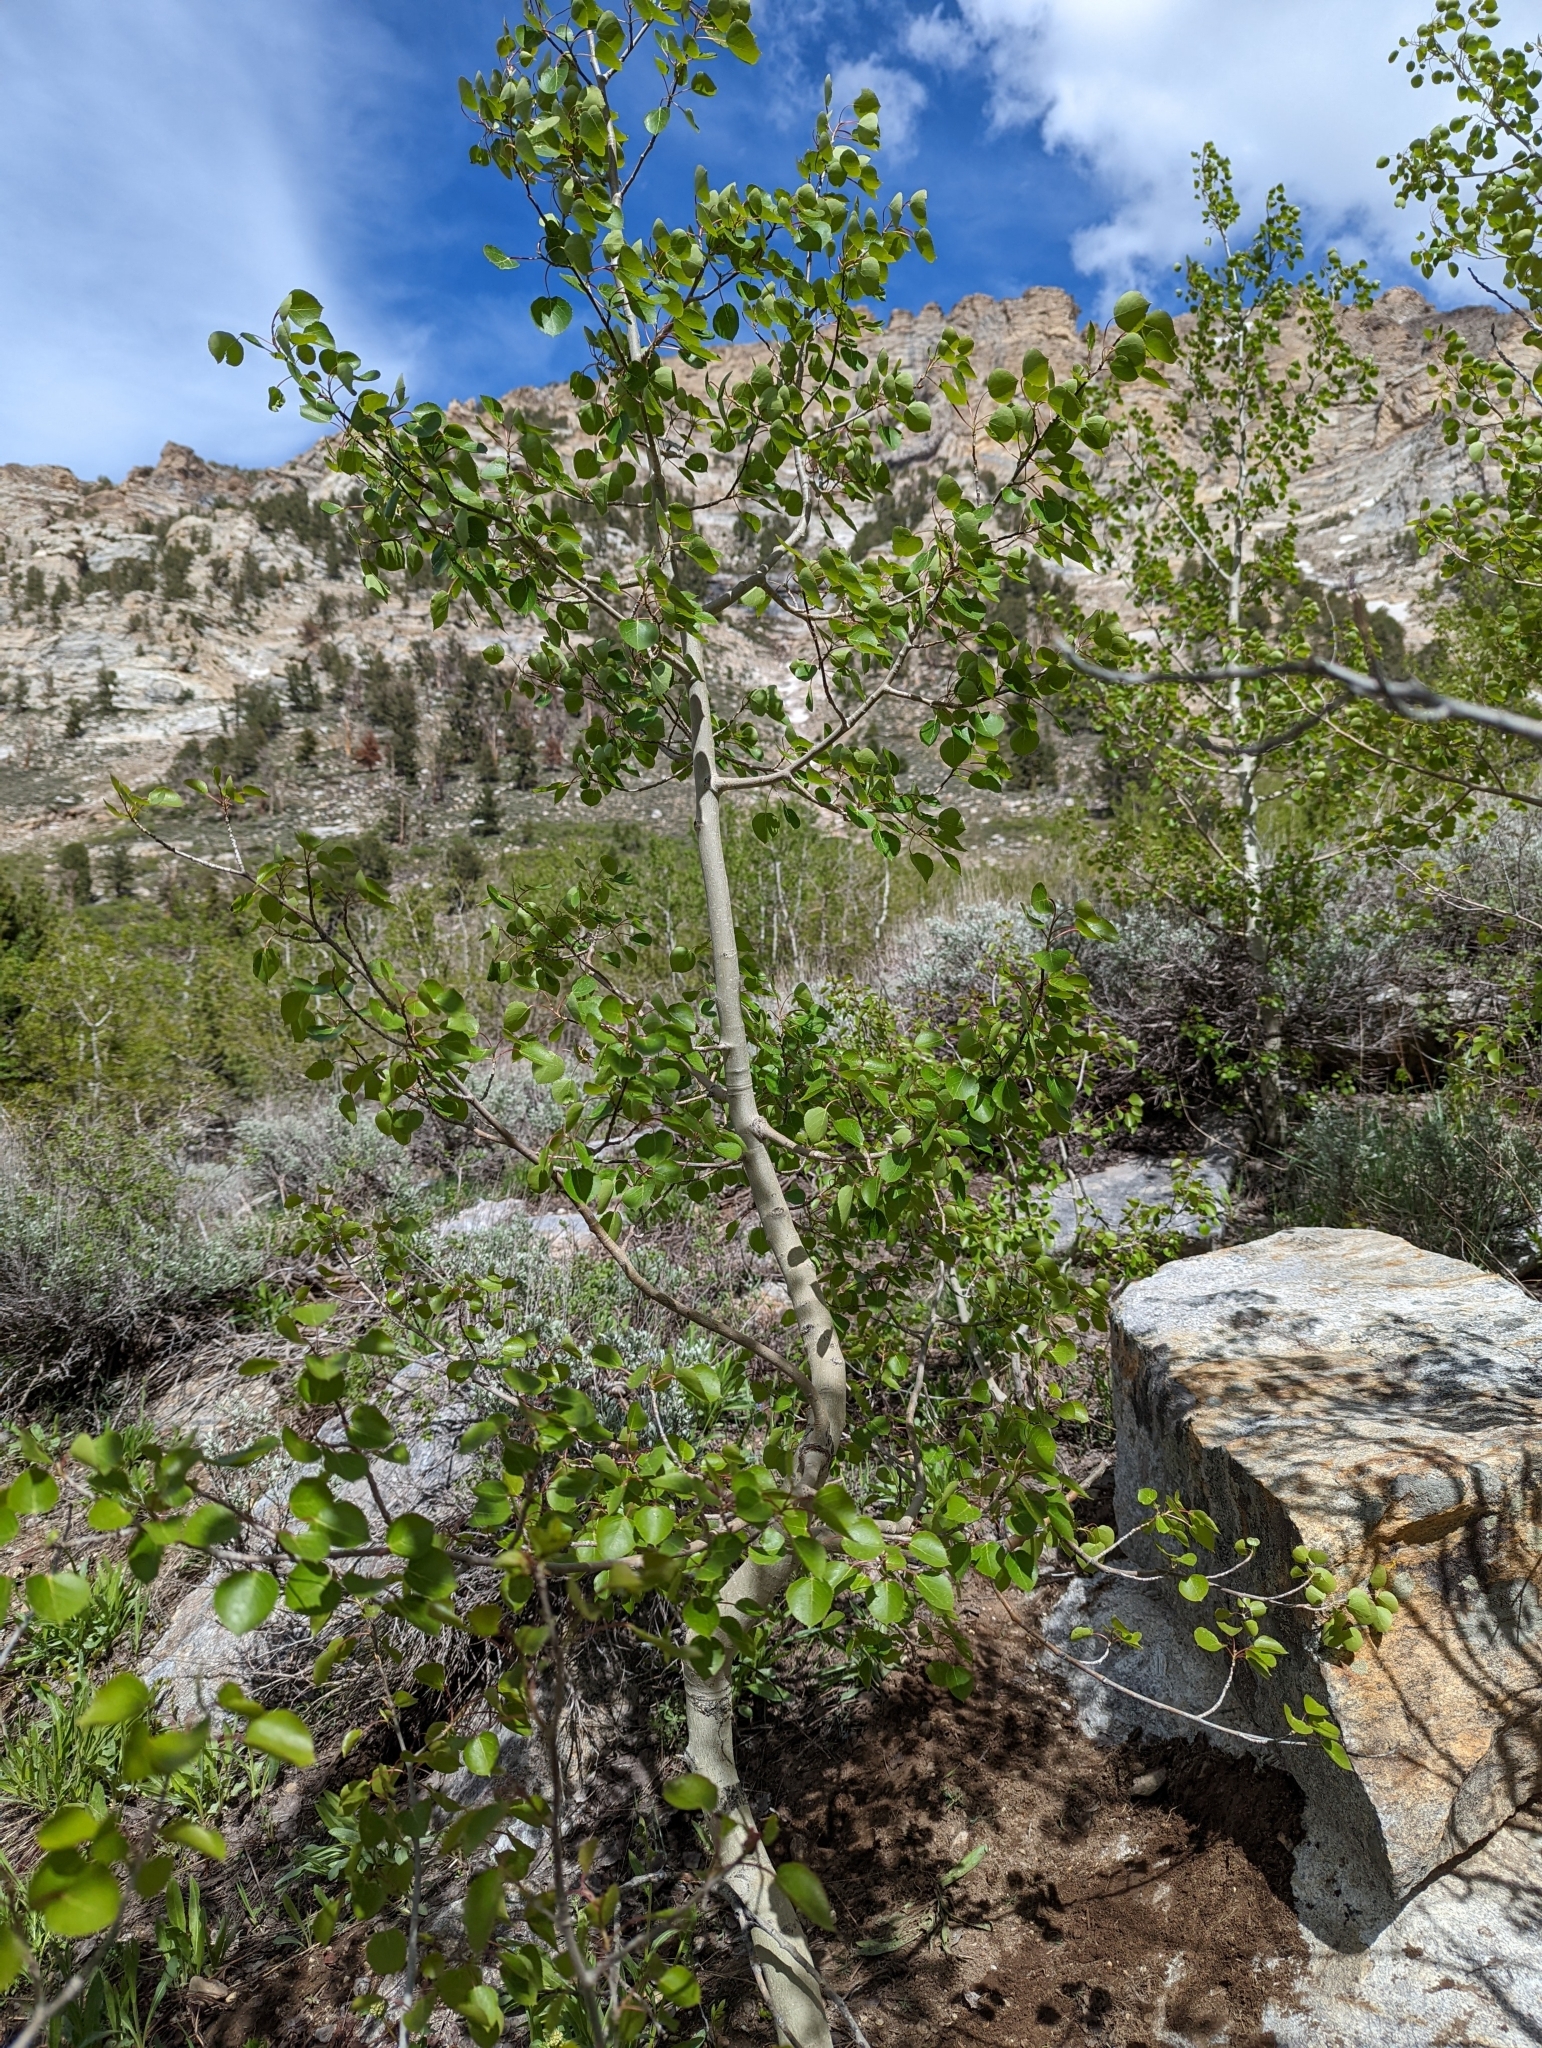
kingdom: Plantae
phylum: Tracheophyta
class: Magnoliopsida
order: Malpighiales
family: Salicaceae
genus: Populus
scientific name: Populus tremuloides
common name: Quaking aspen
